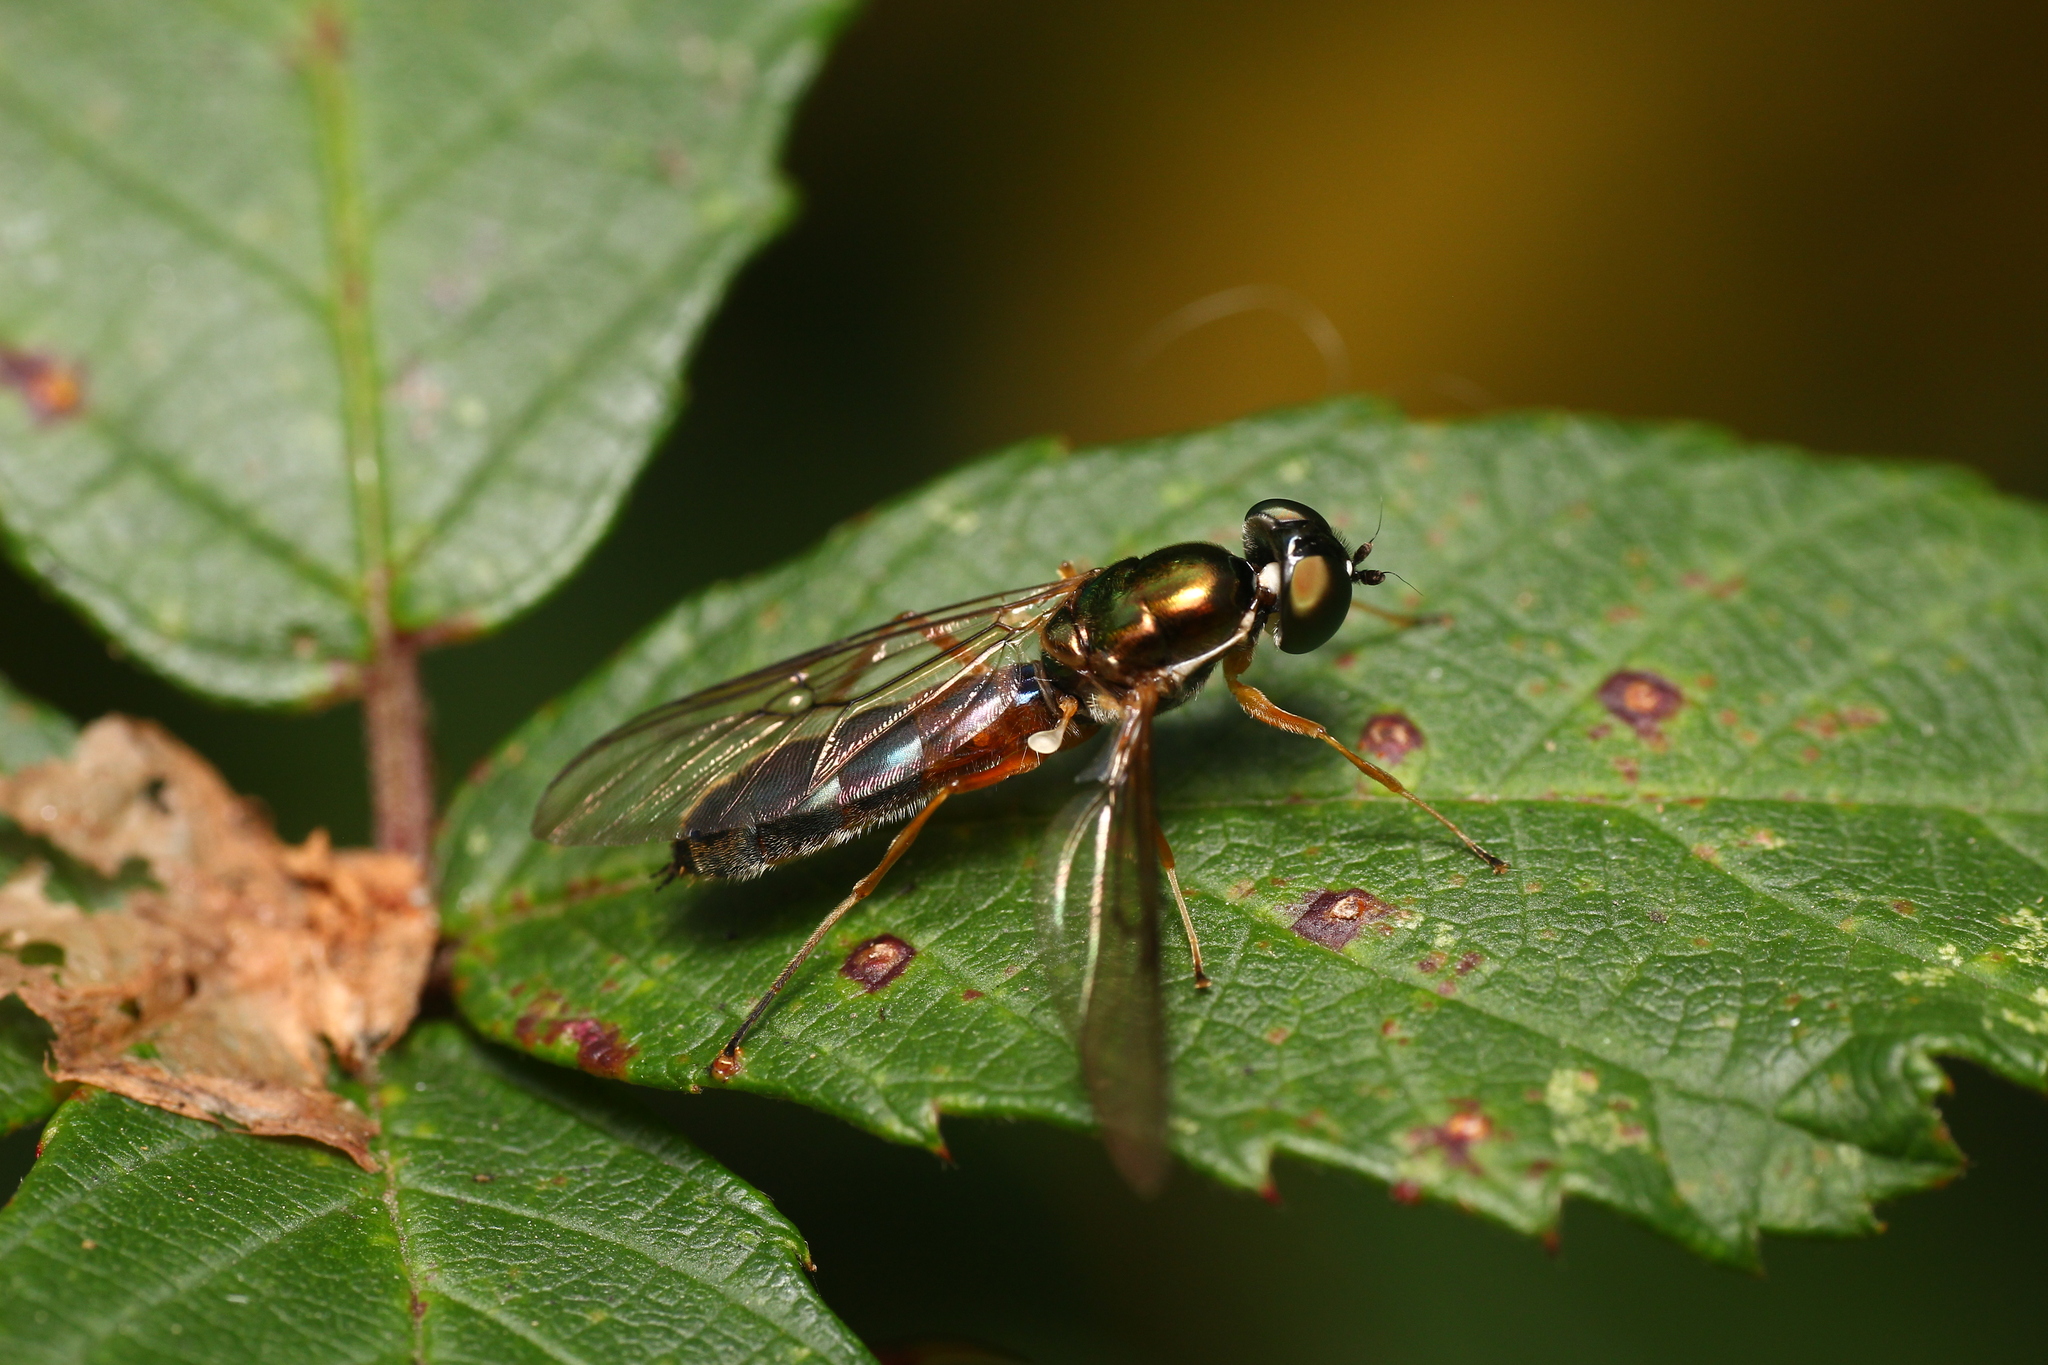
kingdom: Animalia
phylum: Arthropoda
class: Insecta
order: Diptera
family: Stratiomyidae
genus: Sargus
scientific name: Sargus bipunctatus
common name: Twin-spot centurion
